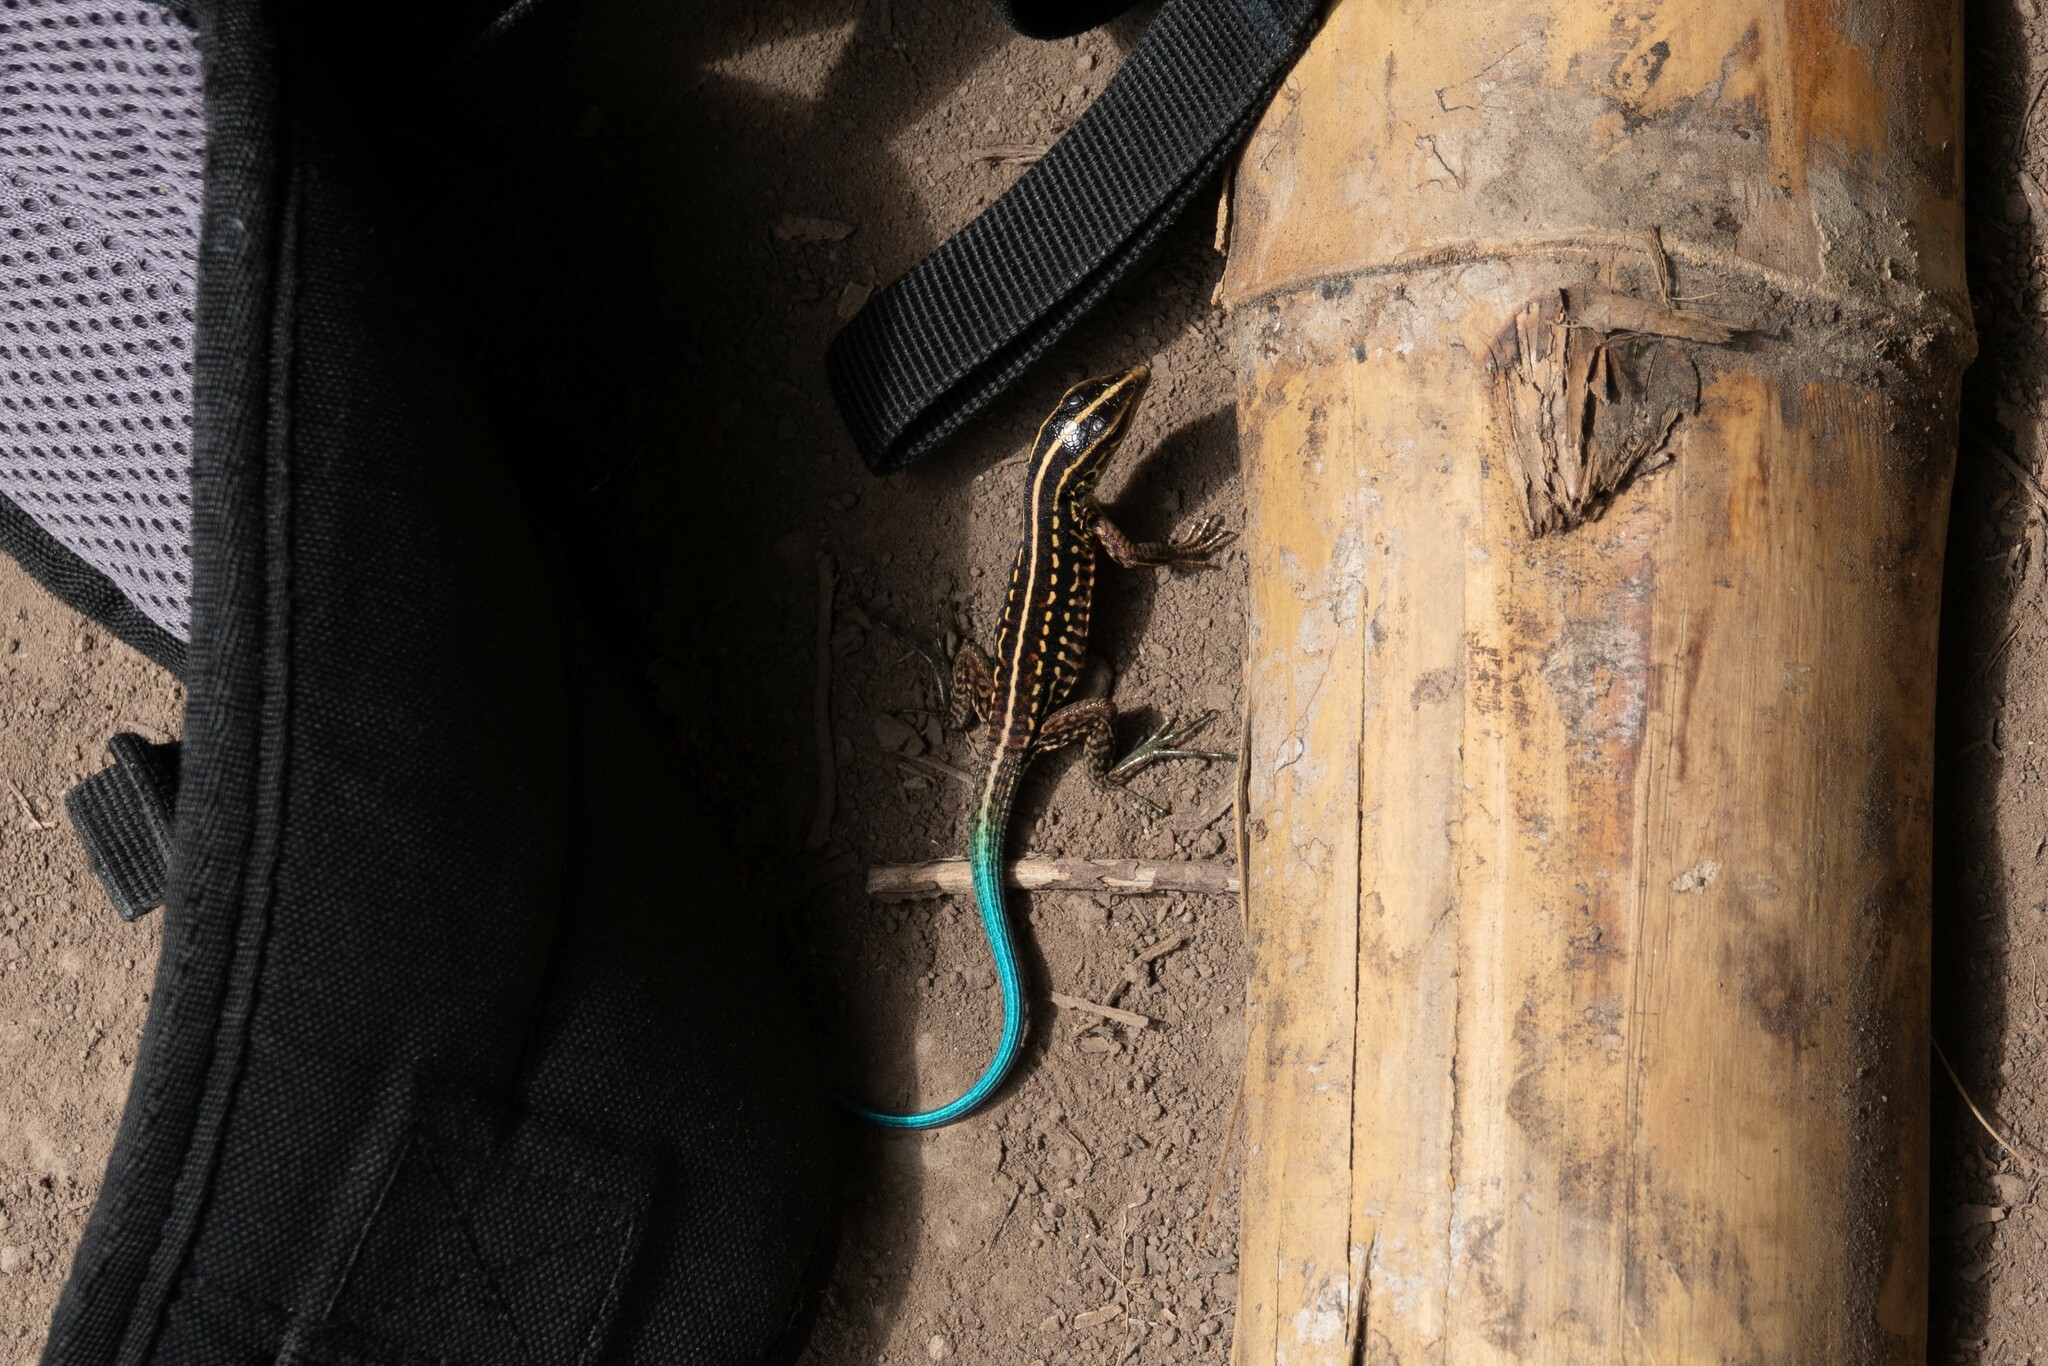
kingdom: Animalia
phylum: Chordata
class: Squamata
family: Teiidae
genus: Holcosus
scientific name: Holcosus septemlineatus
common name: Seven-lined ameiva
